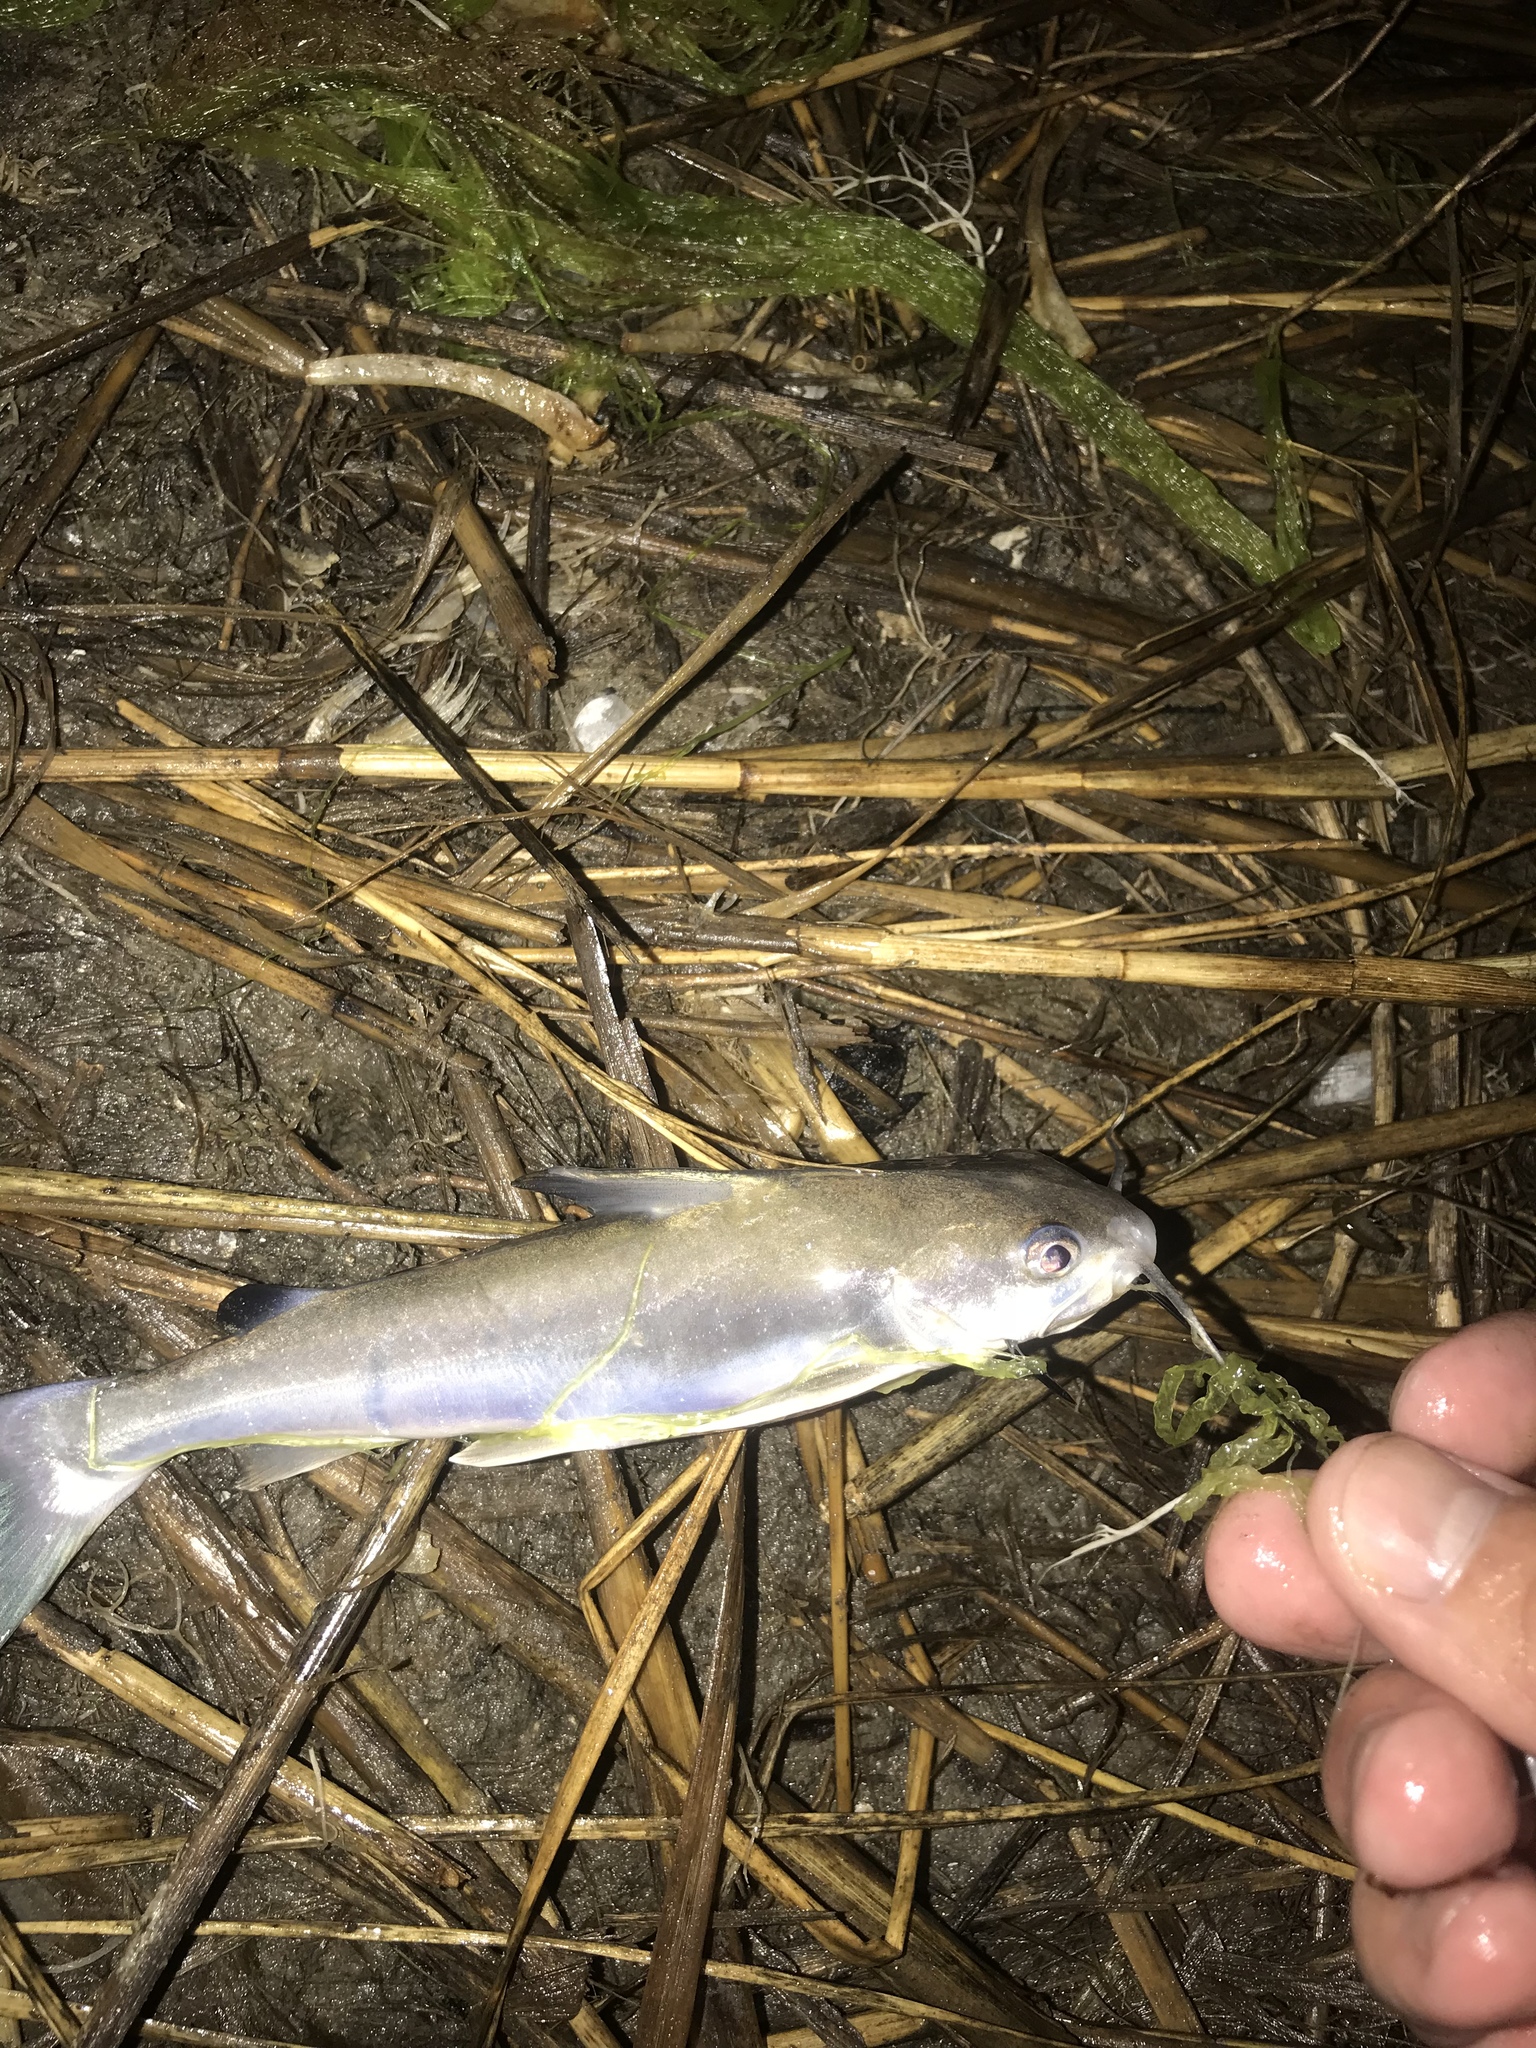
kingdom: Animalia
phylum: Chordata
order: Siluriformes
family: Ariidae
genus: Ariopsis
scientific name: Ariopsis felis
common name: Hardhead catfish
